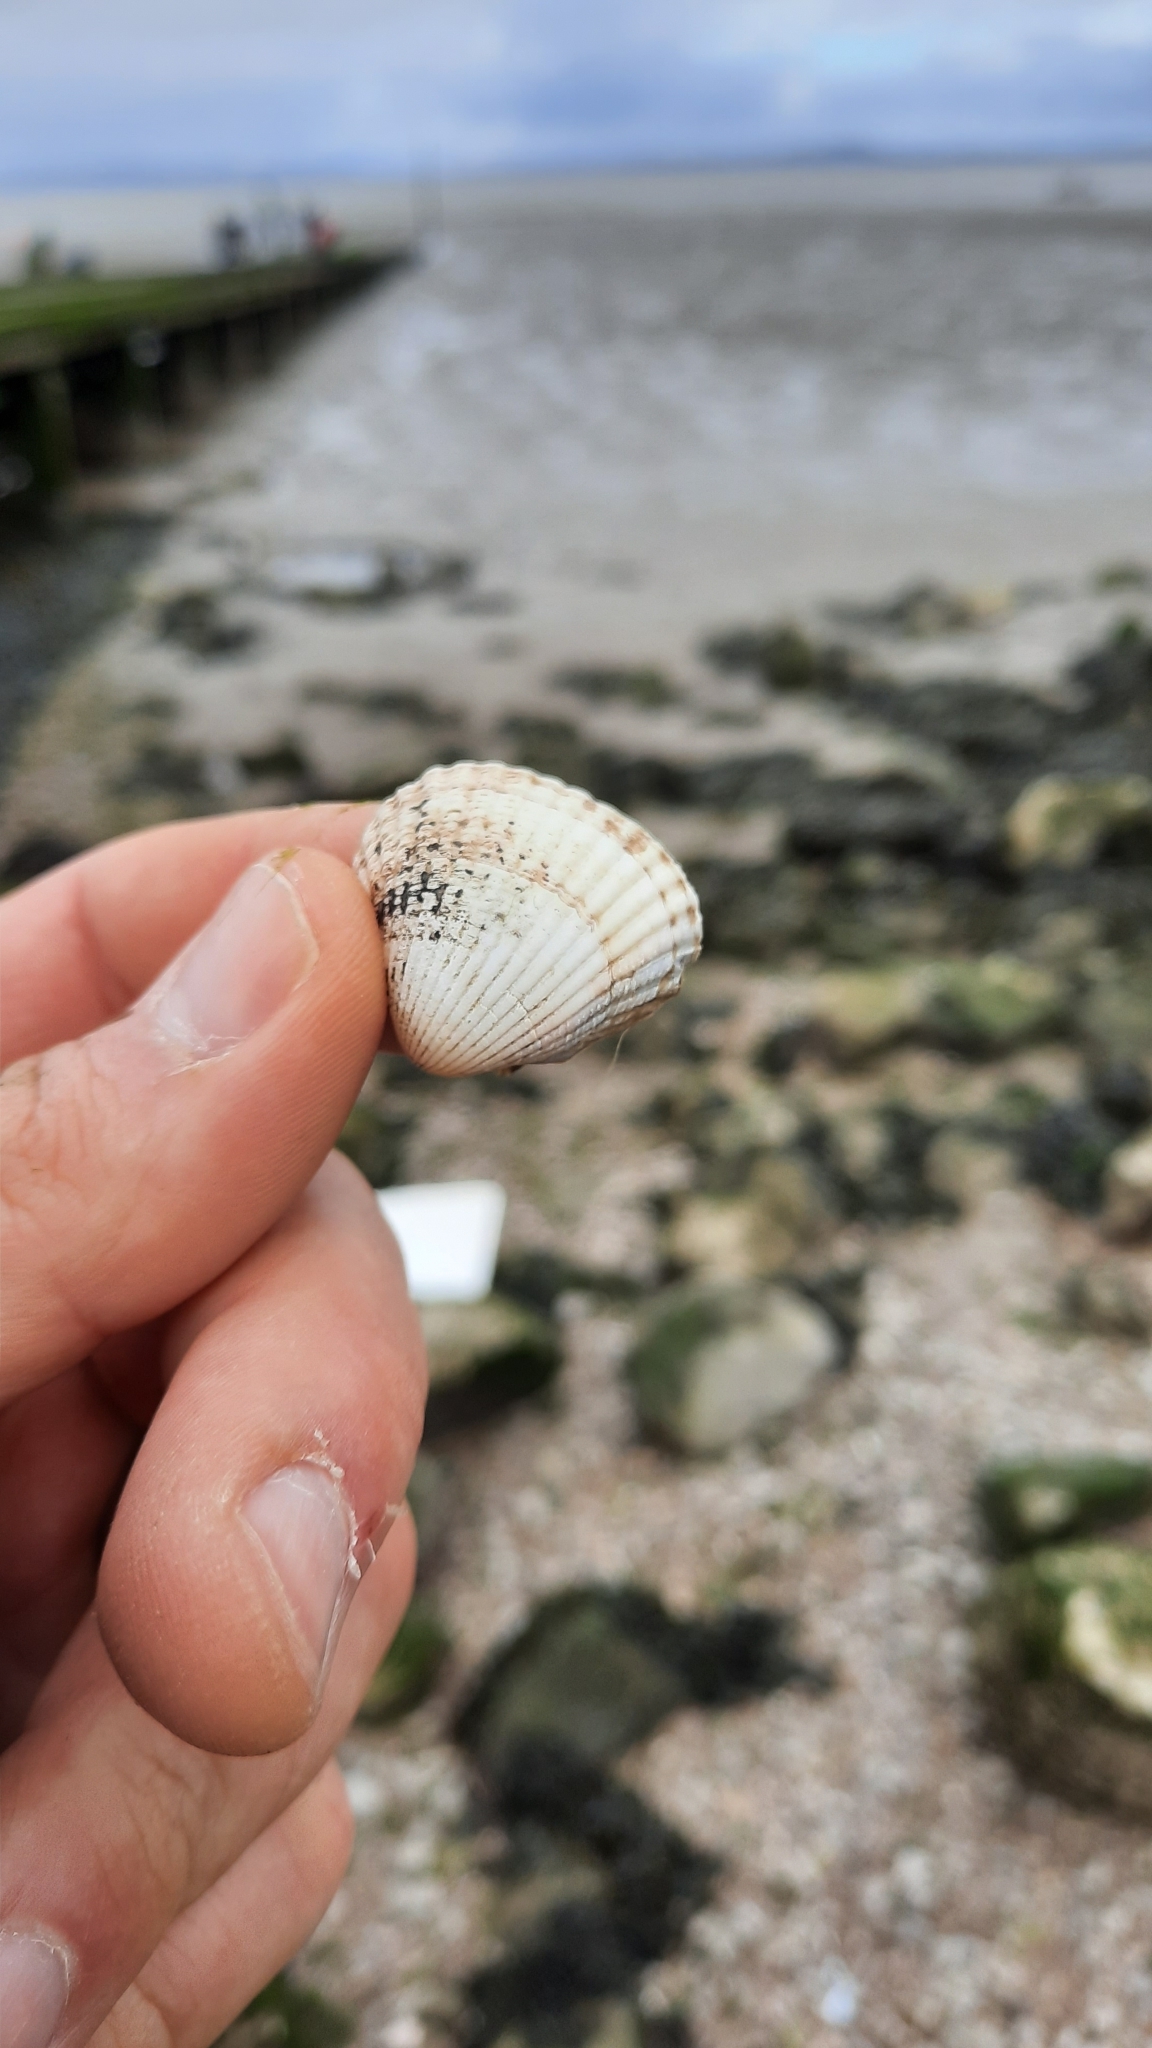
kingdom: Animalia
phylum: Mollusca
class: Bivalvia
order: Cardiida
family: Cardiidae
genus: Cerastoderma
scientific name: Cerastoderma edule
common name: Common cockle
